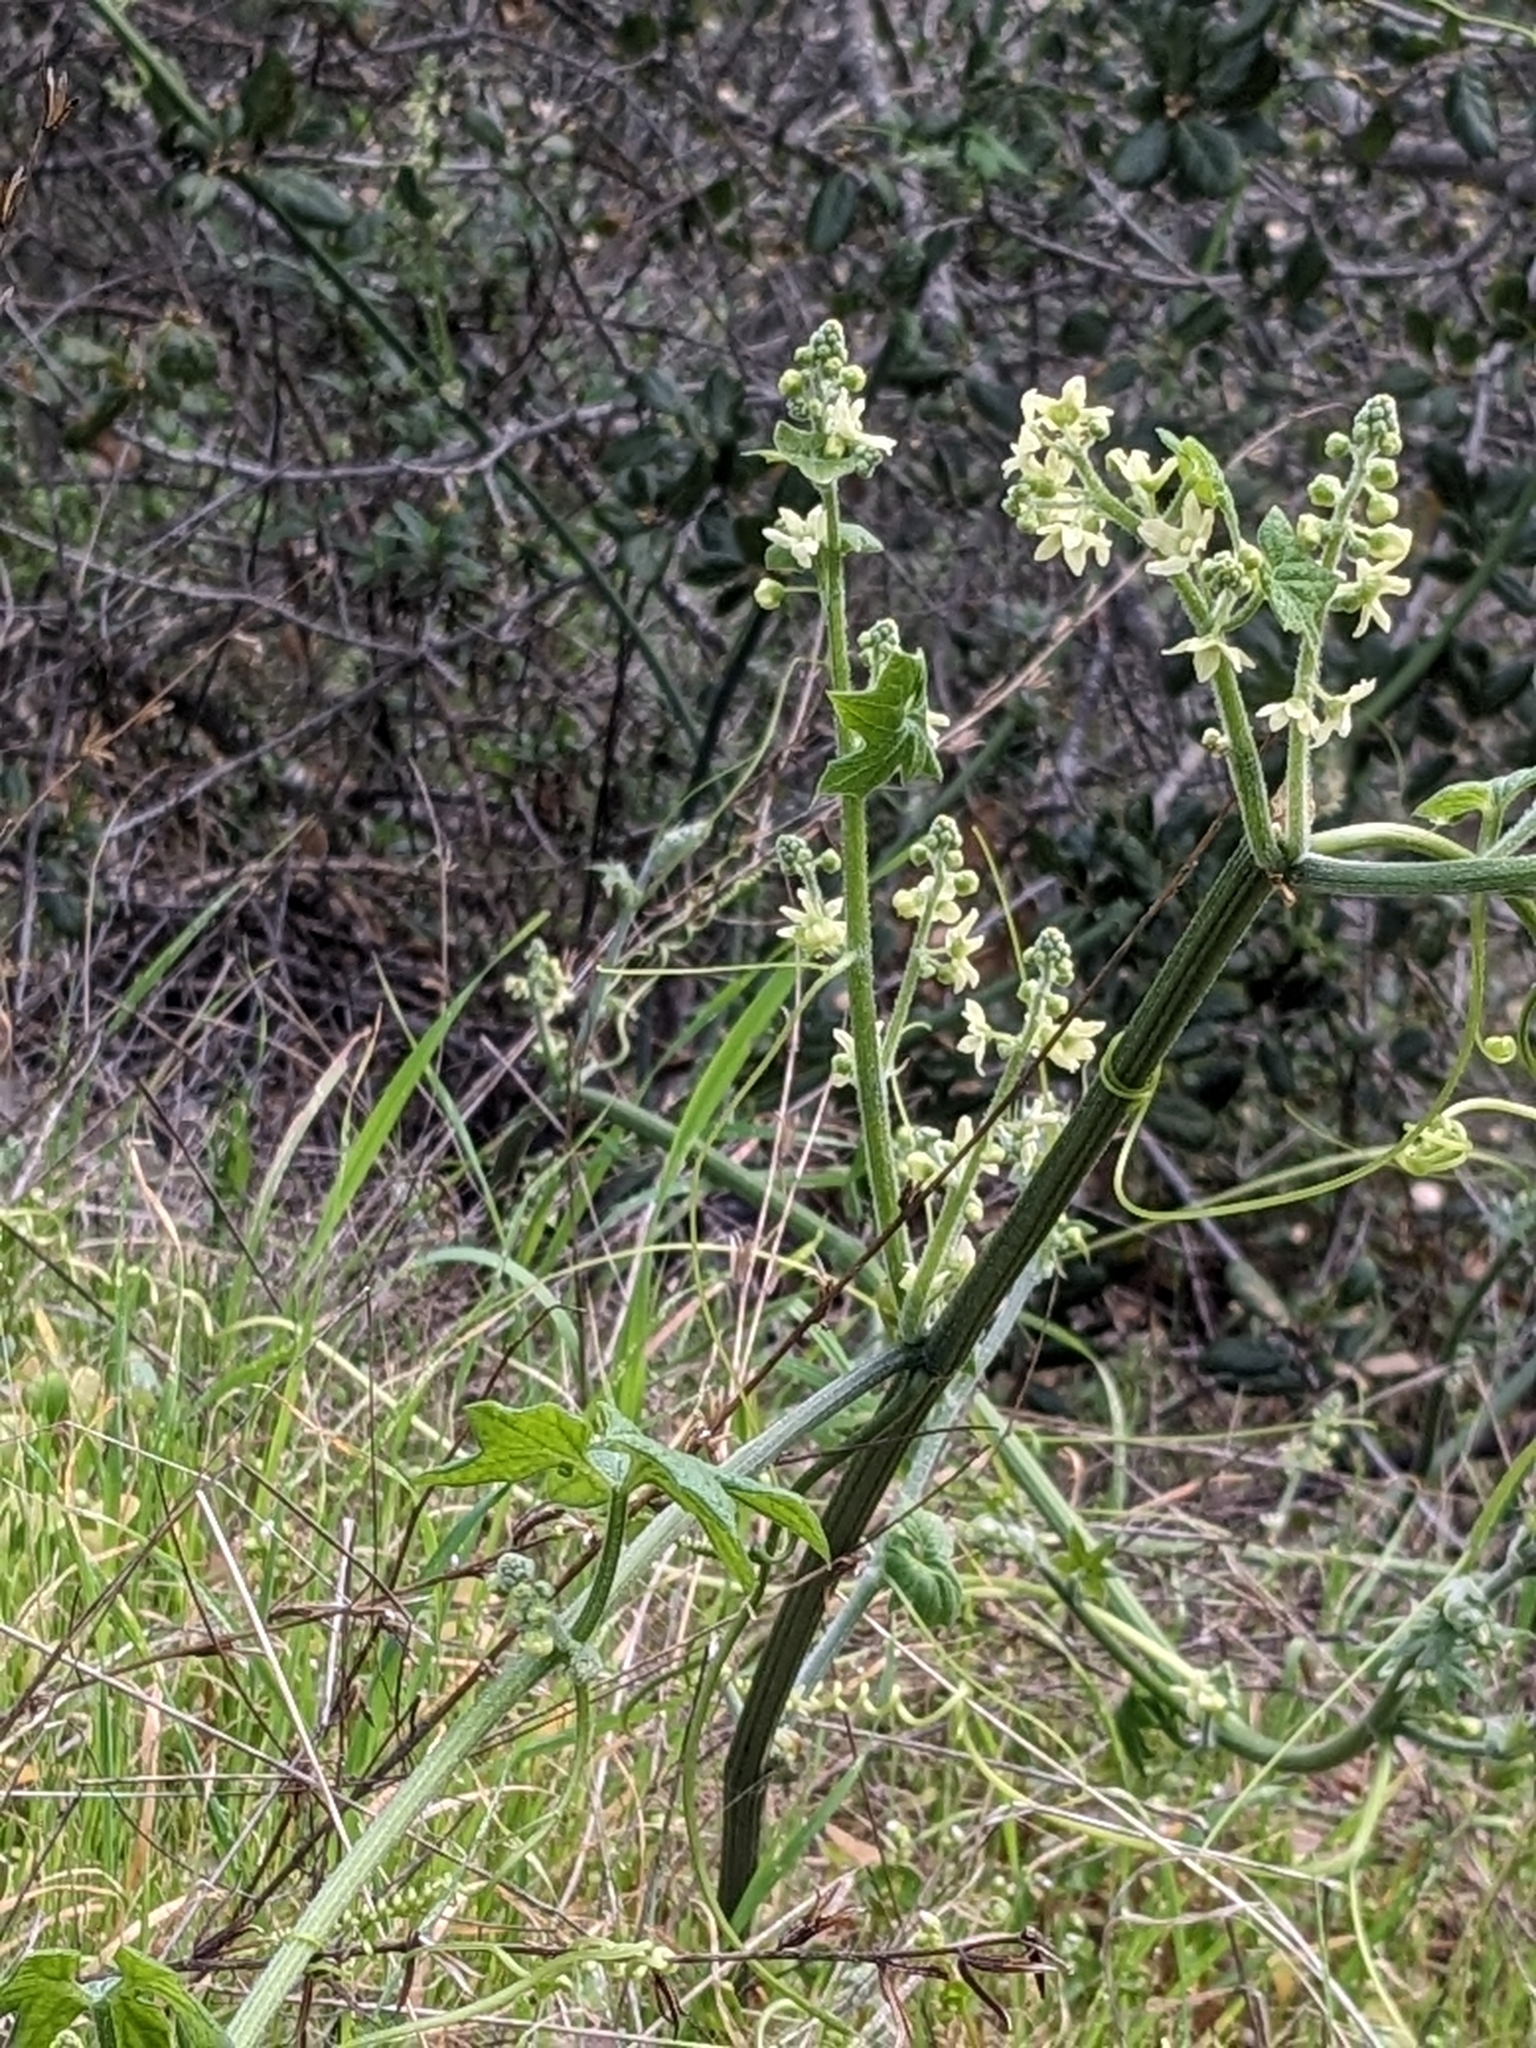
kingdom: Plantae
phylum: Tracheophyta
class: Magnoliopsida
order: Cucurbitales
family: Cucurbitaceae
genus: Marah
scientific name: Marah fabacea
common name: California manroot
